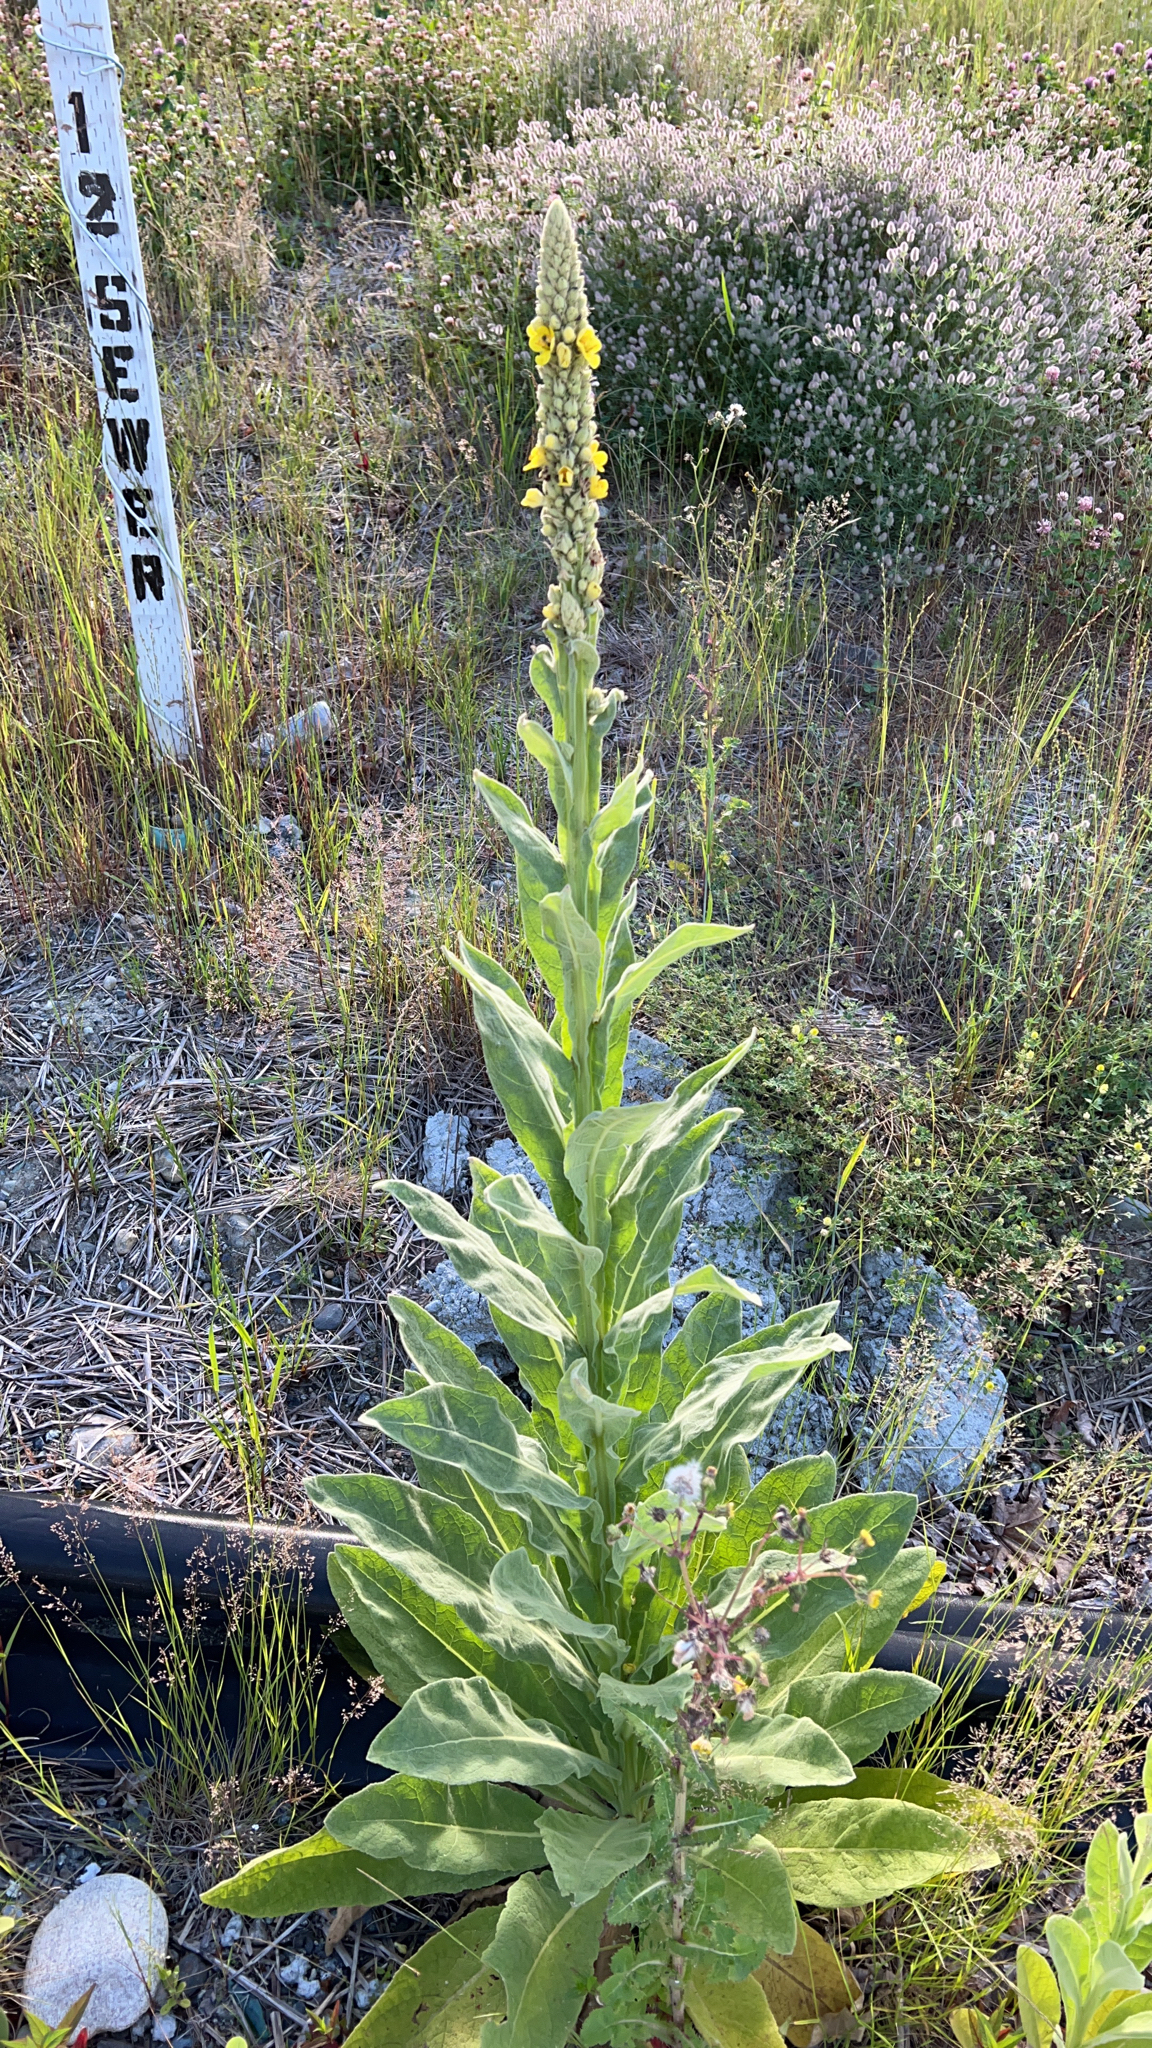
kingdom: Plantae
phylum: Tracheophyta
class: Magnoliopsida
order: Lamiales
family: Scrophulariaceae
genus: Verbascum
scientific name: Verbascum thapsus
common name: Common mullein
